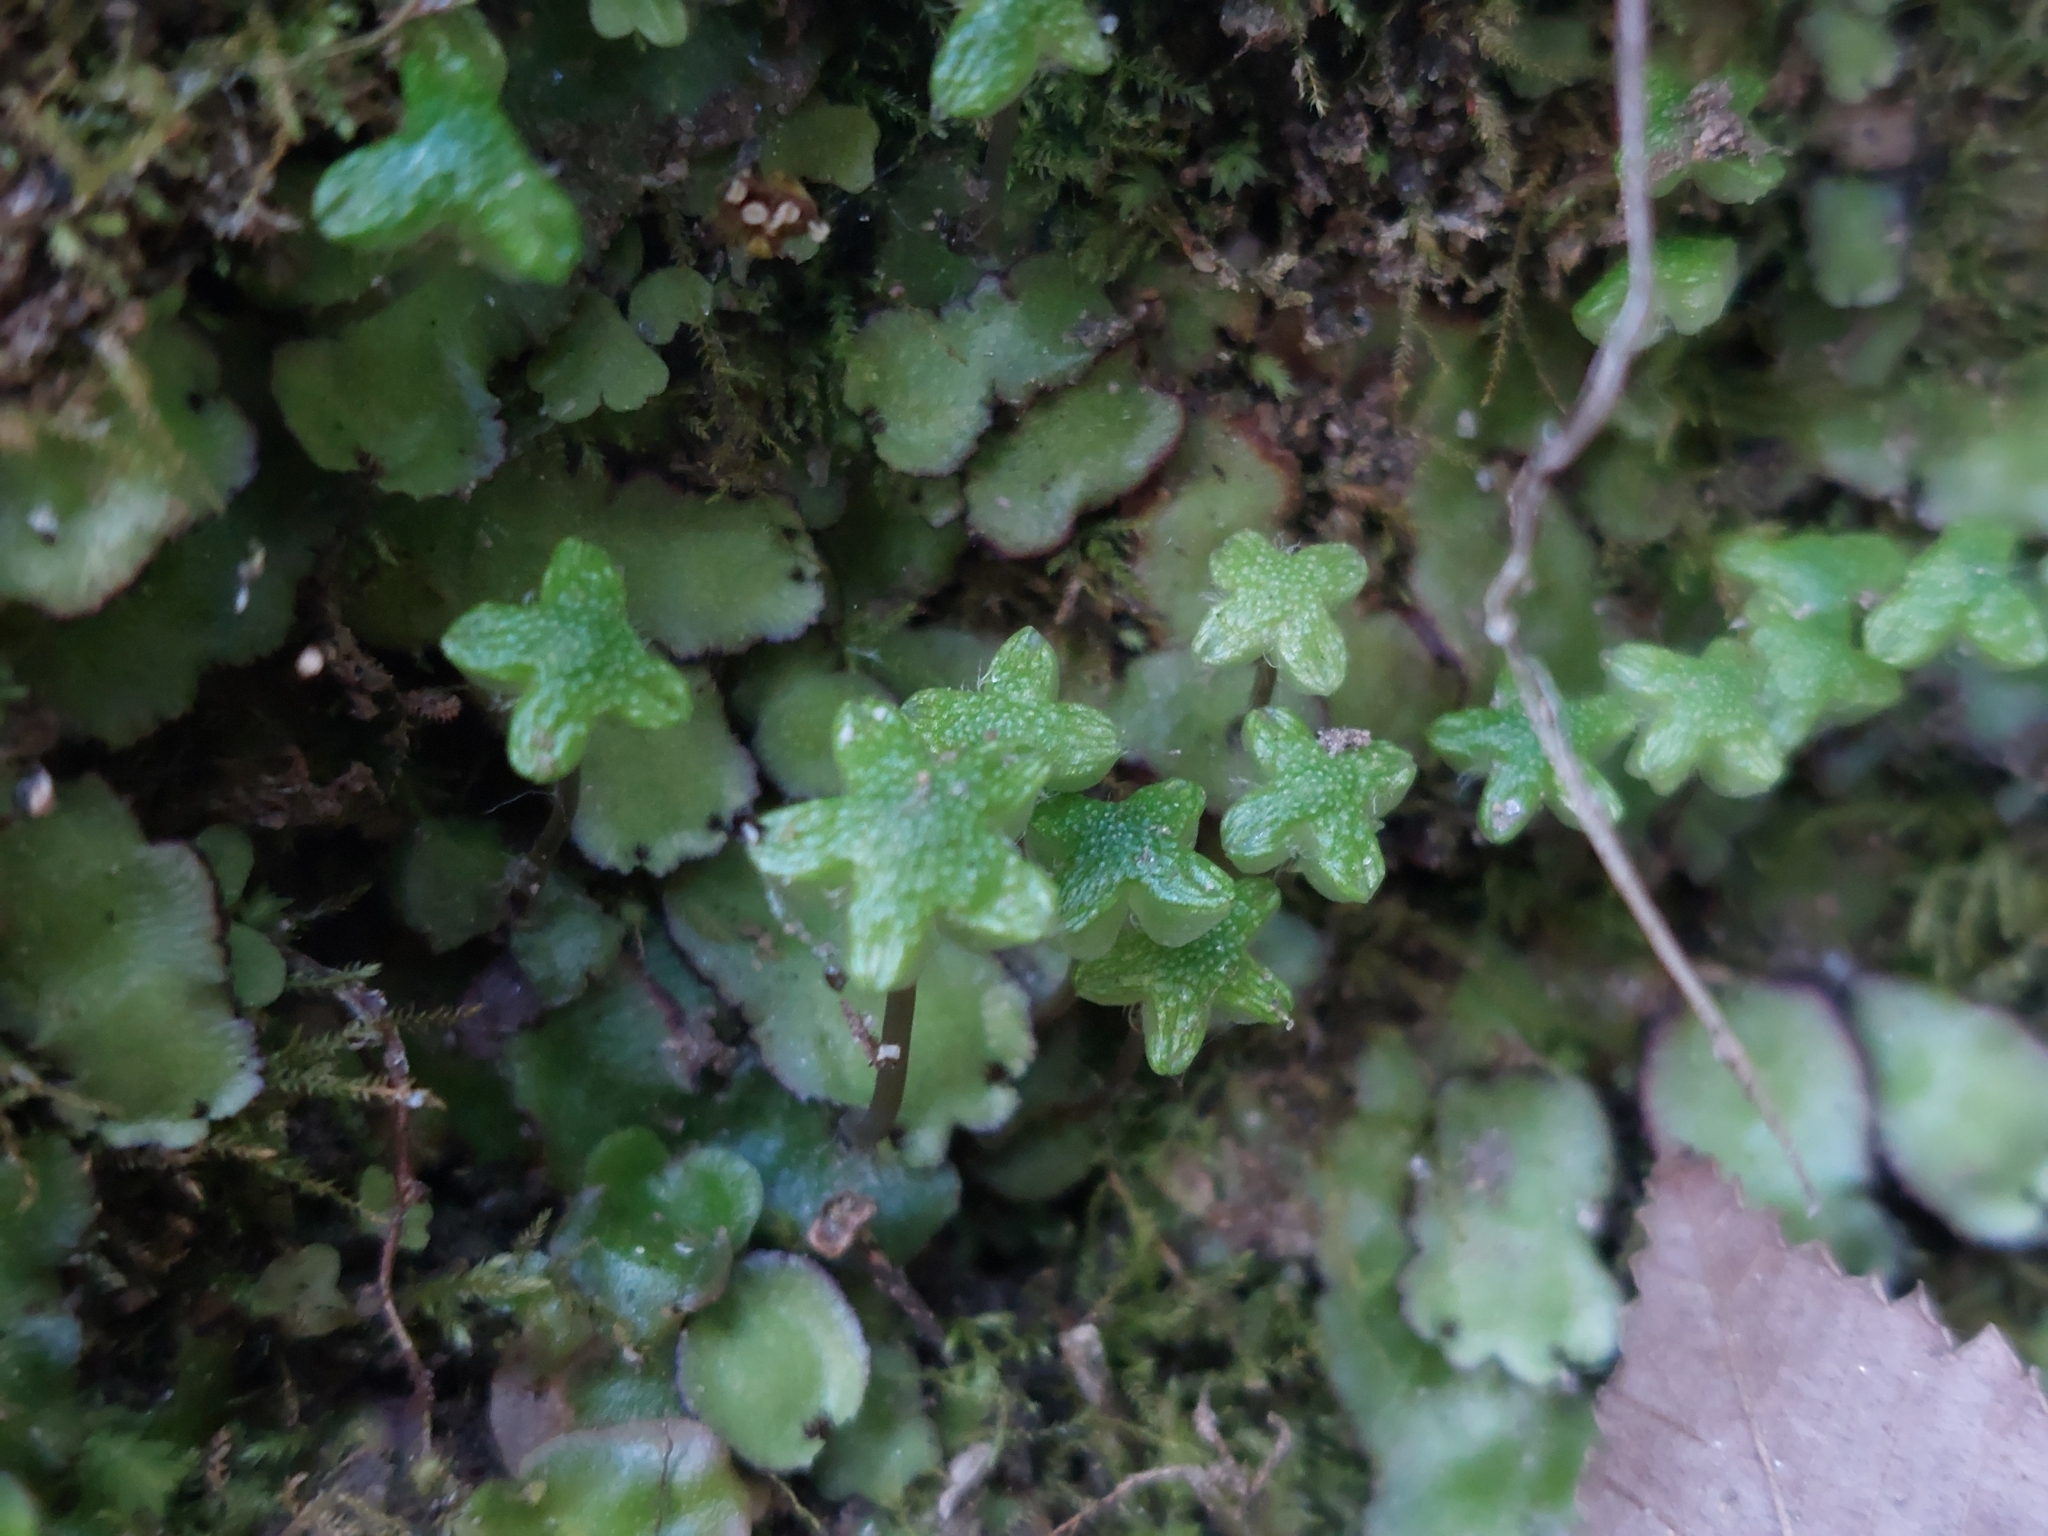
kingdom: Plantae
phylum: Marchantiophyta
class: Marchantiopsida
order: Marchantiales
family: Aytoniaceae
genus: Reboulia
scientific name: Reboulia hemisphaerica
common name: Purple-margined liverwort
